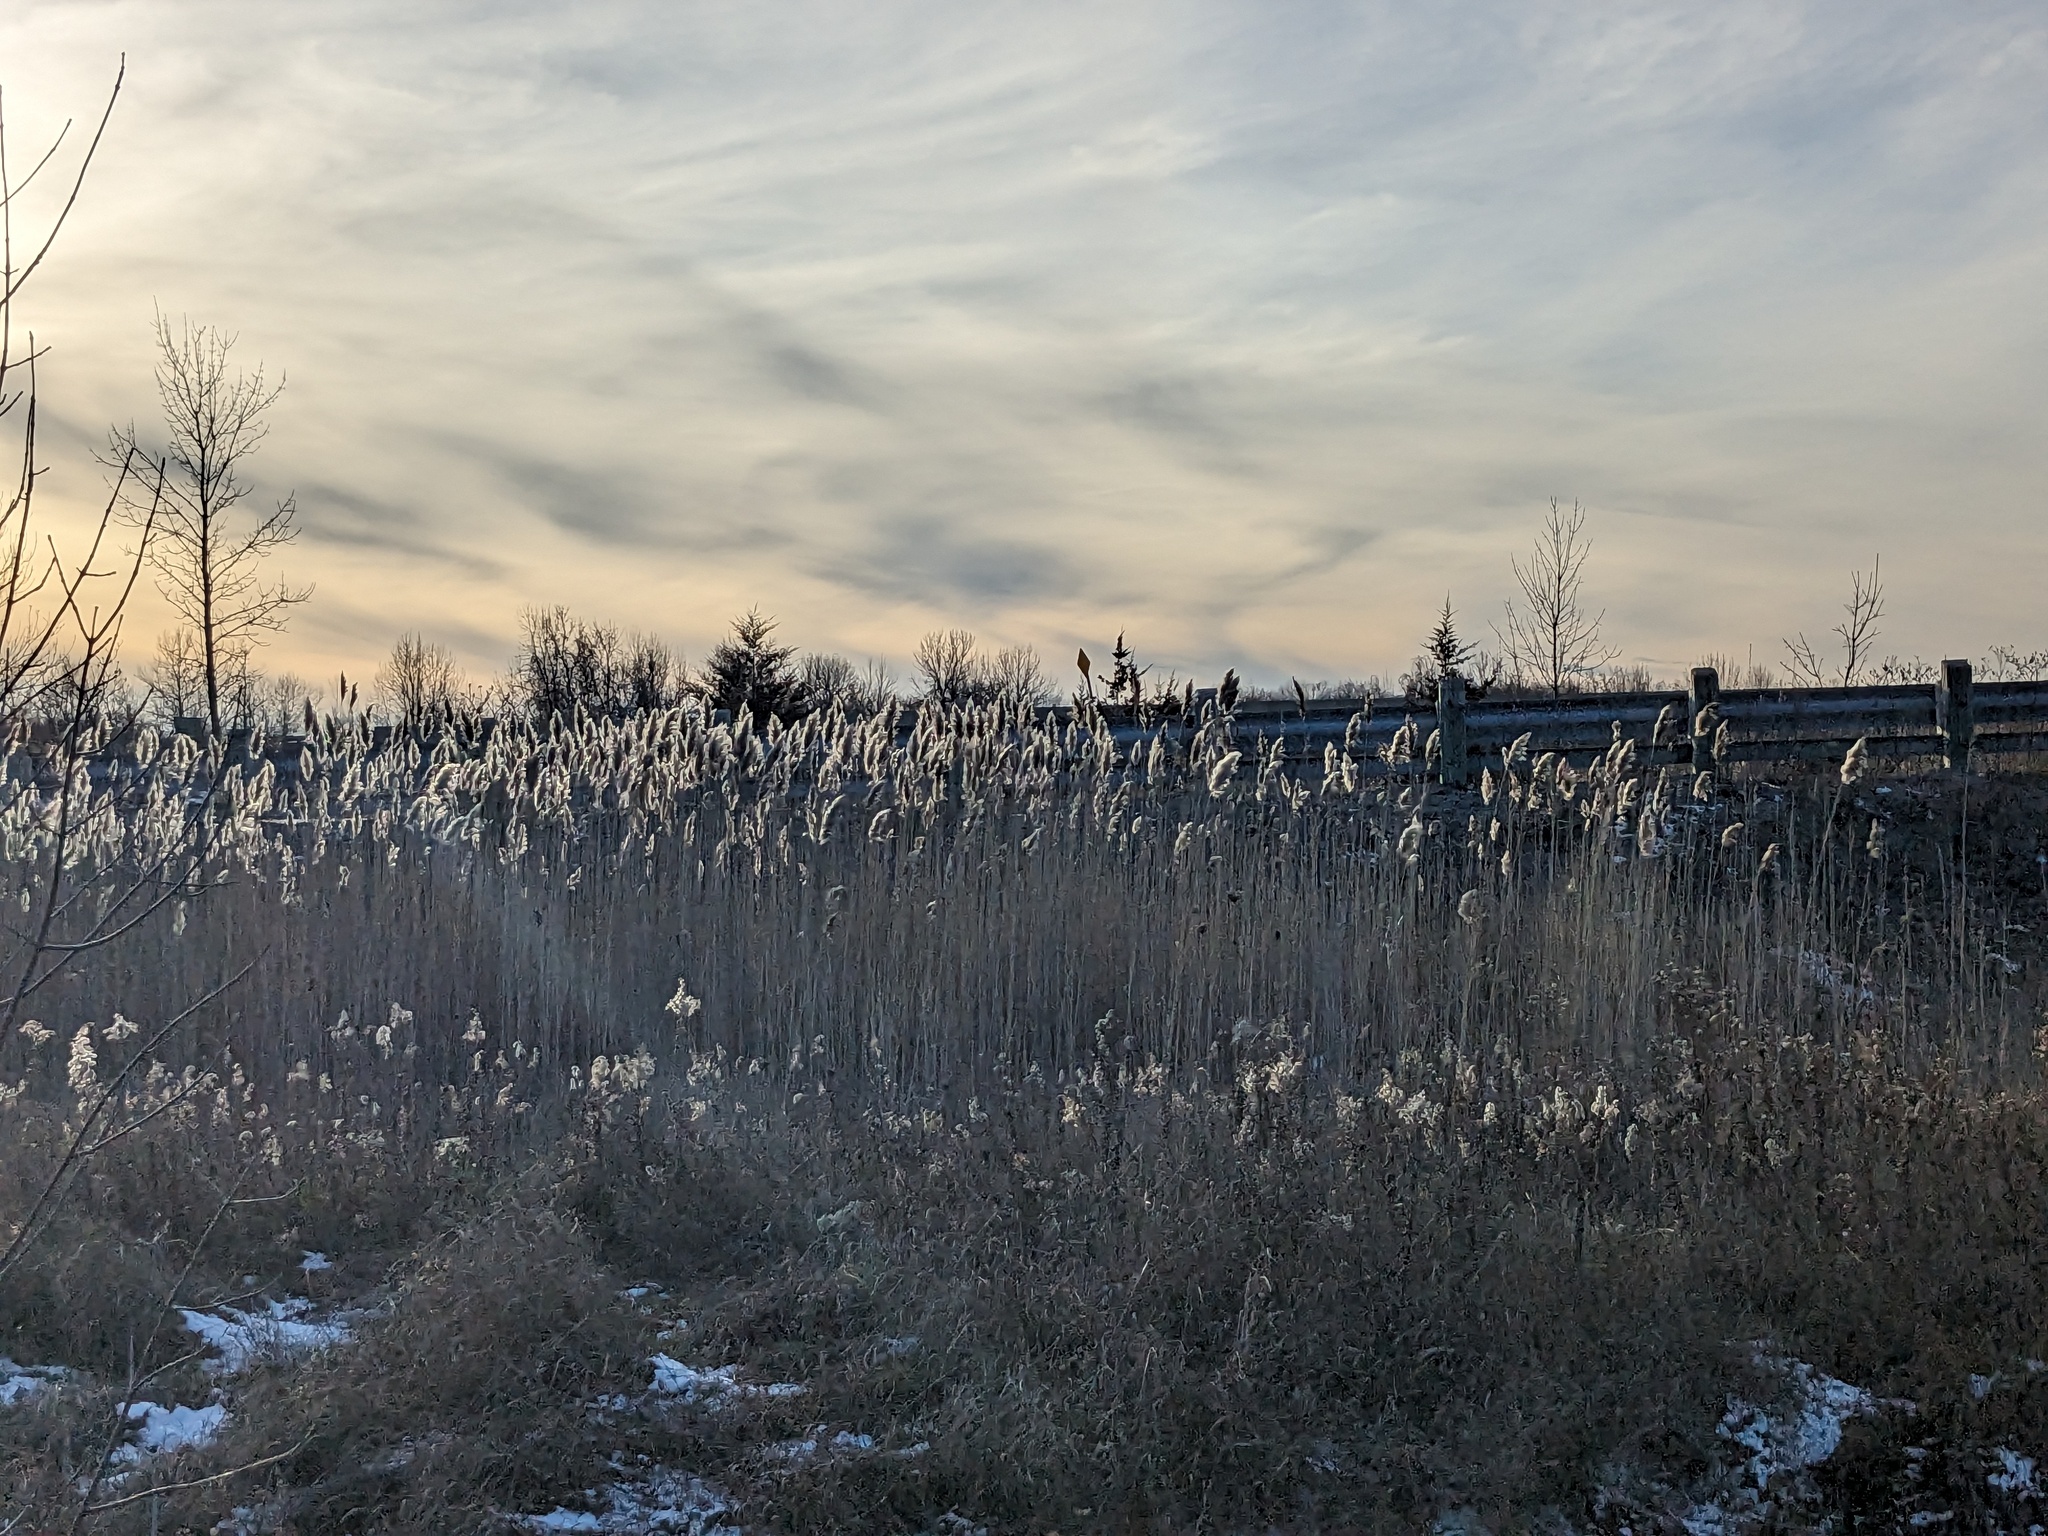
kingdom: Plantae
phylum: Tracheophyta
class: Liliopsida
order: Poales
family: Poaceae
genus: Phragmites
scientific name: Phragmites australis
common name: Common reed
